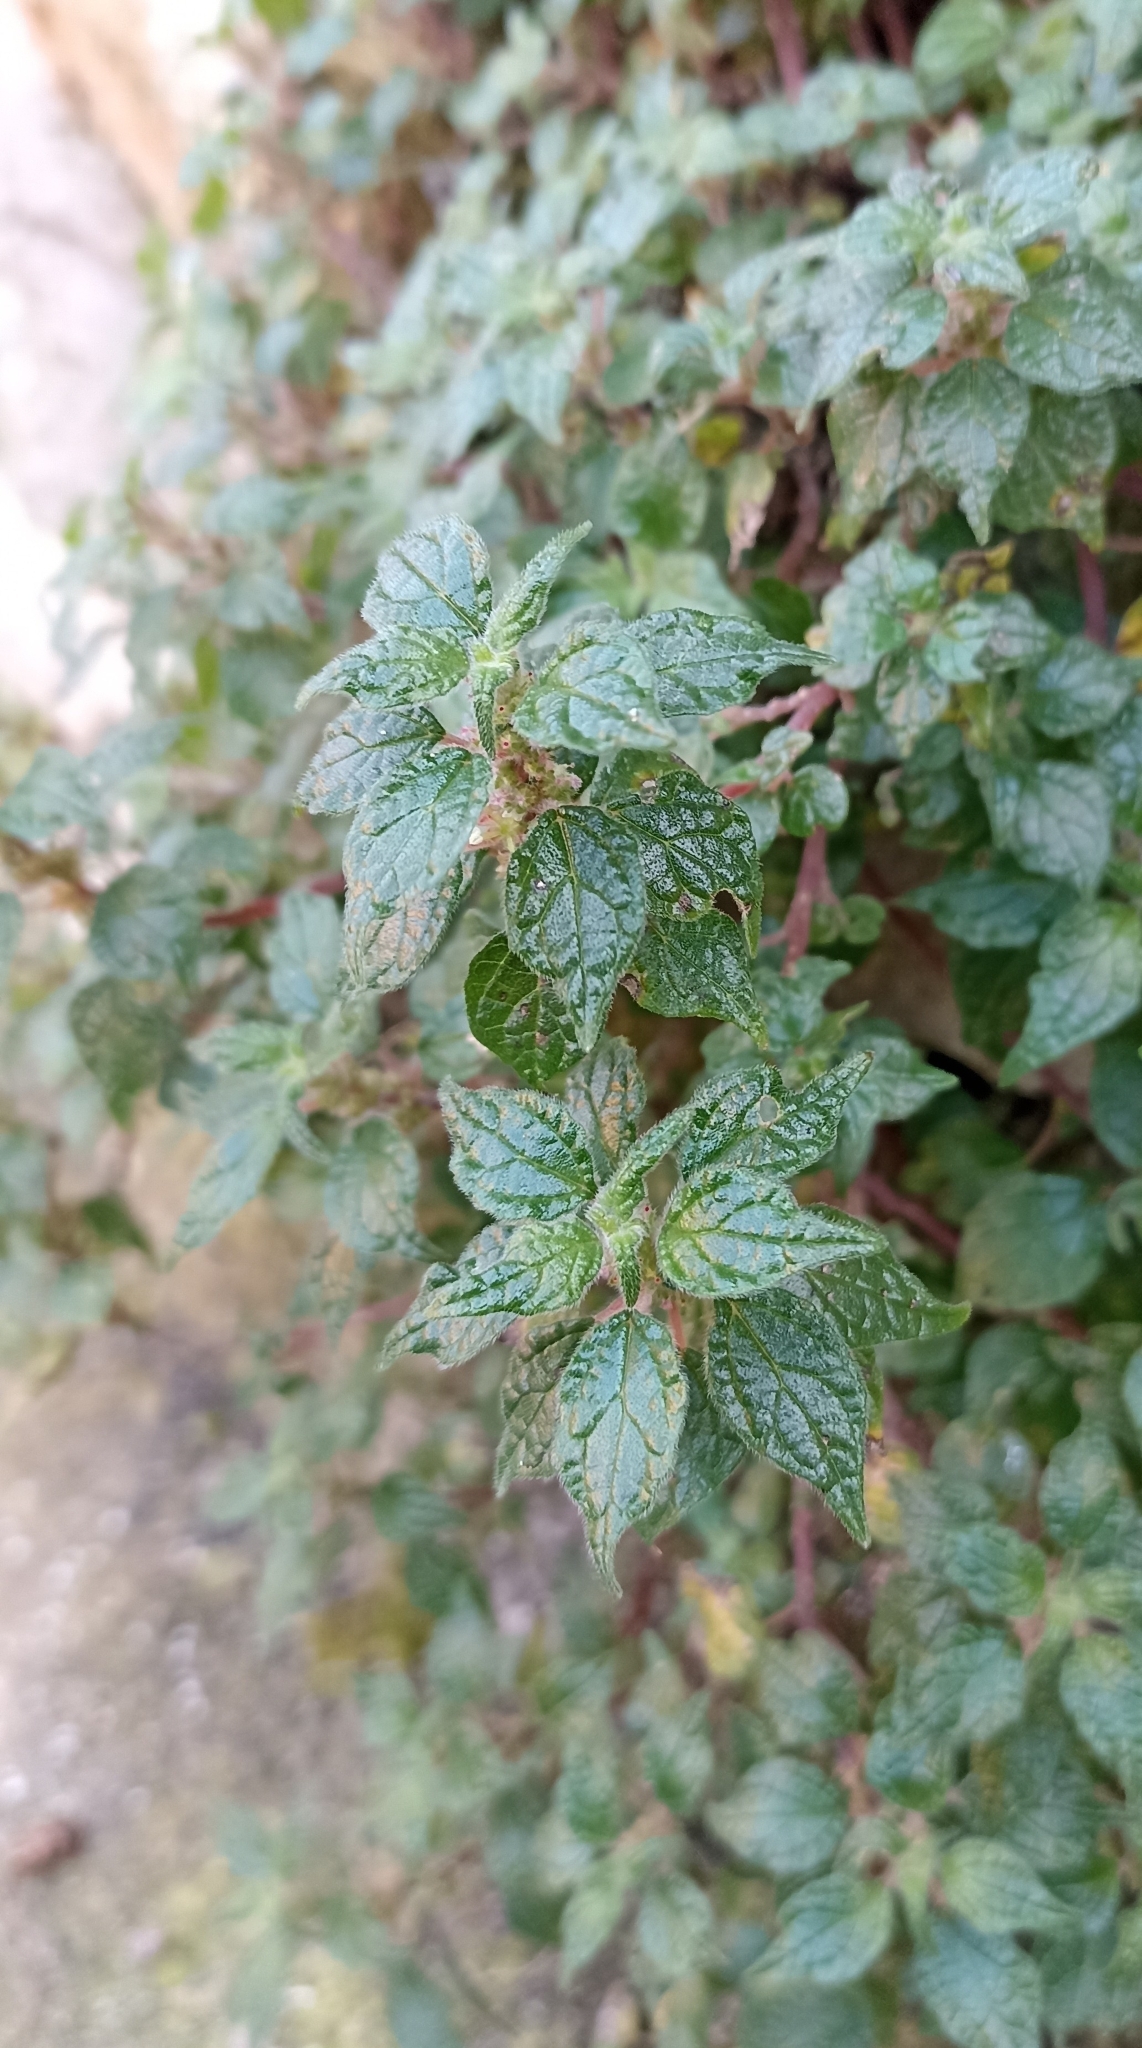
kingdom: Plantae
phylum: Tracheophyta
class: Magnoliopsida
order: Rosales
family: Urticaceae
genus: Parietaria
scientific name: Parietaria judaica
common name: Pellitory-of-the-wall
